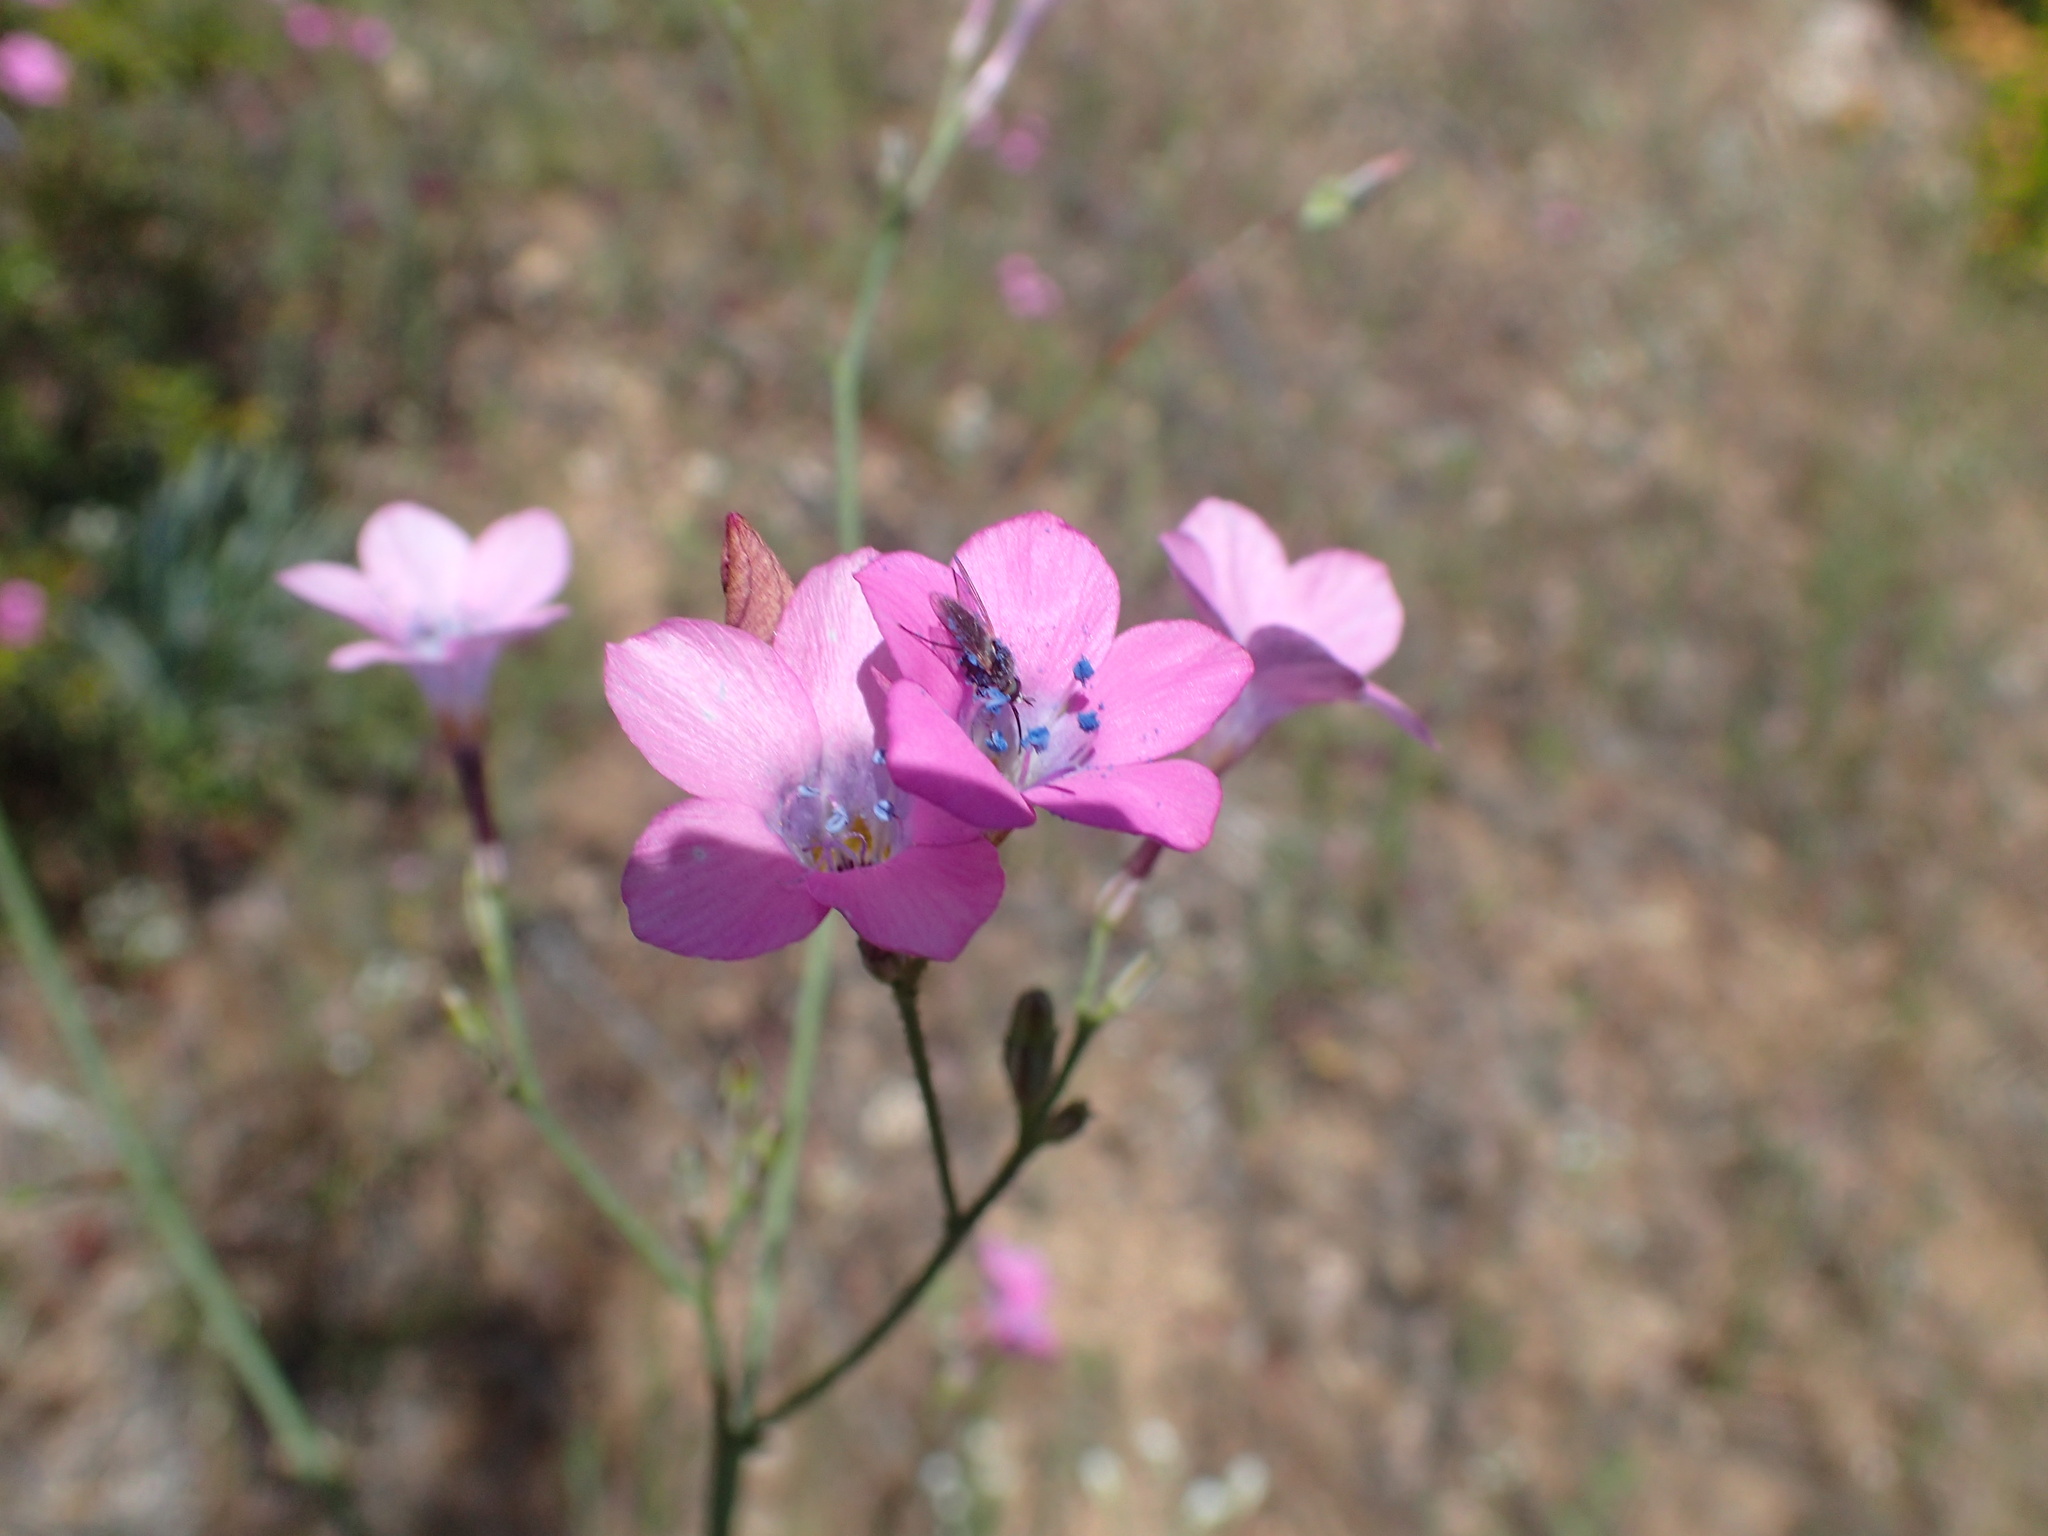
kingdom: Plantae
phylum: Tracheophyta
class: Magnoliopsida
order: Ericales
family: Polemoniaceae
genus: Saltugilia
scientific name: Saltugilia splendens
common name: Grinnell's gilia
